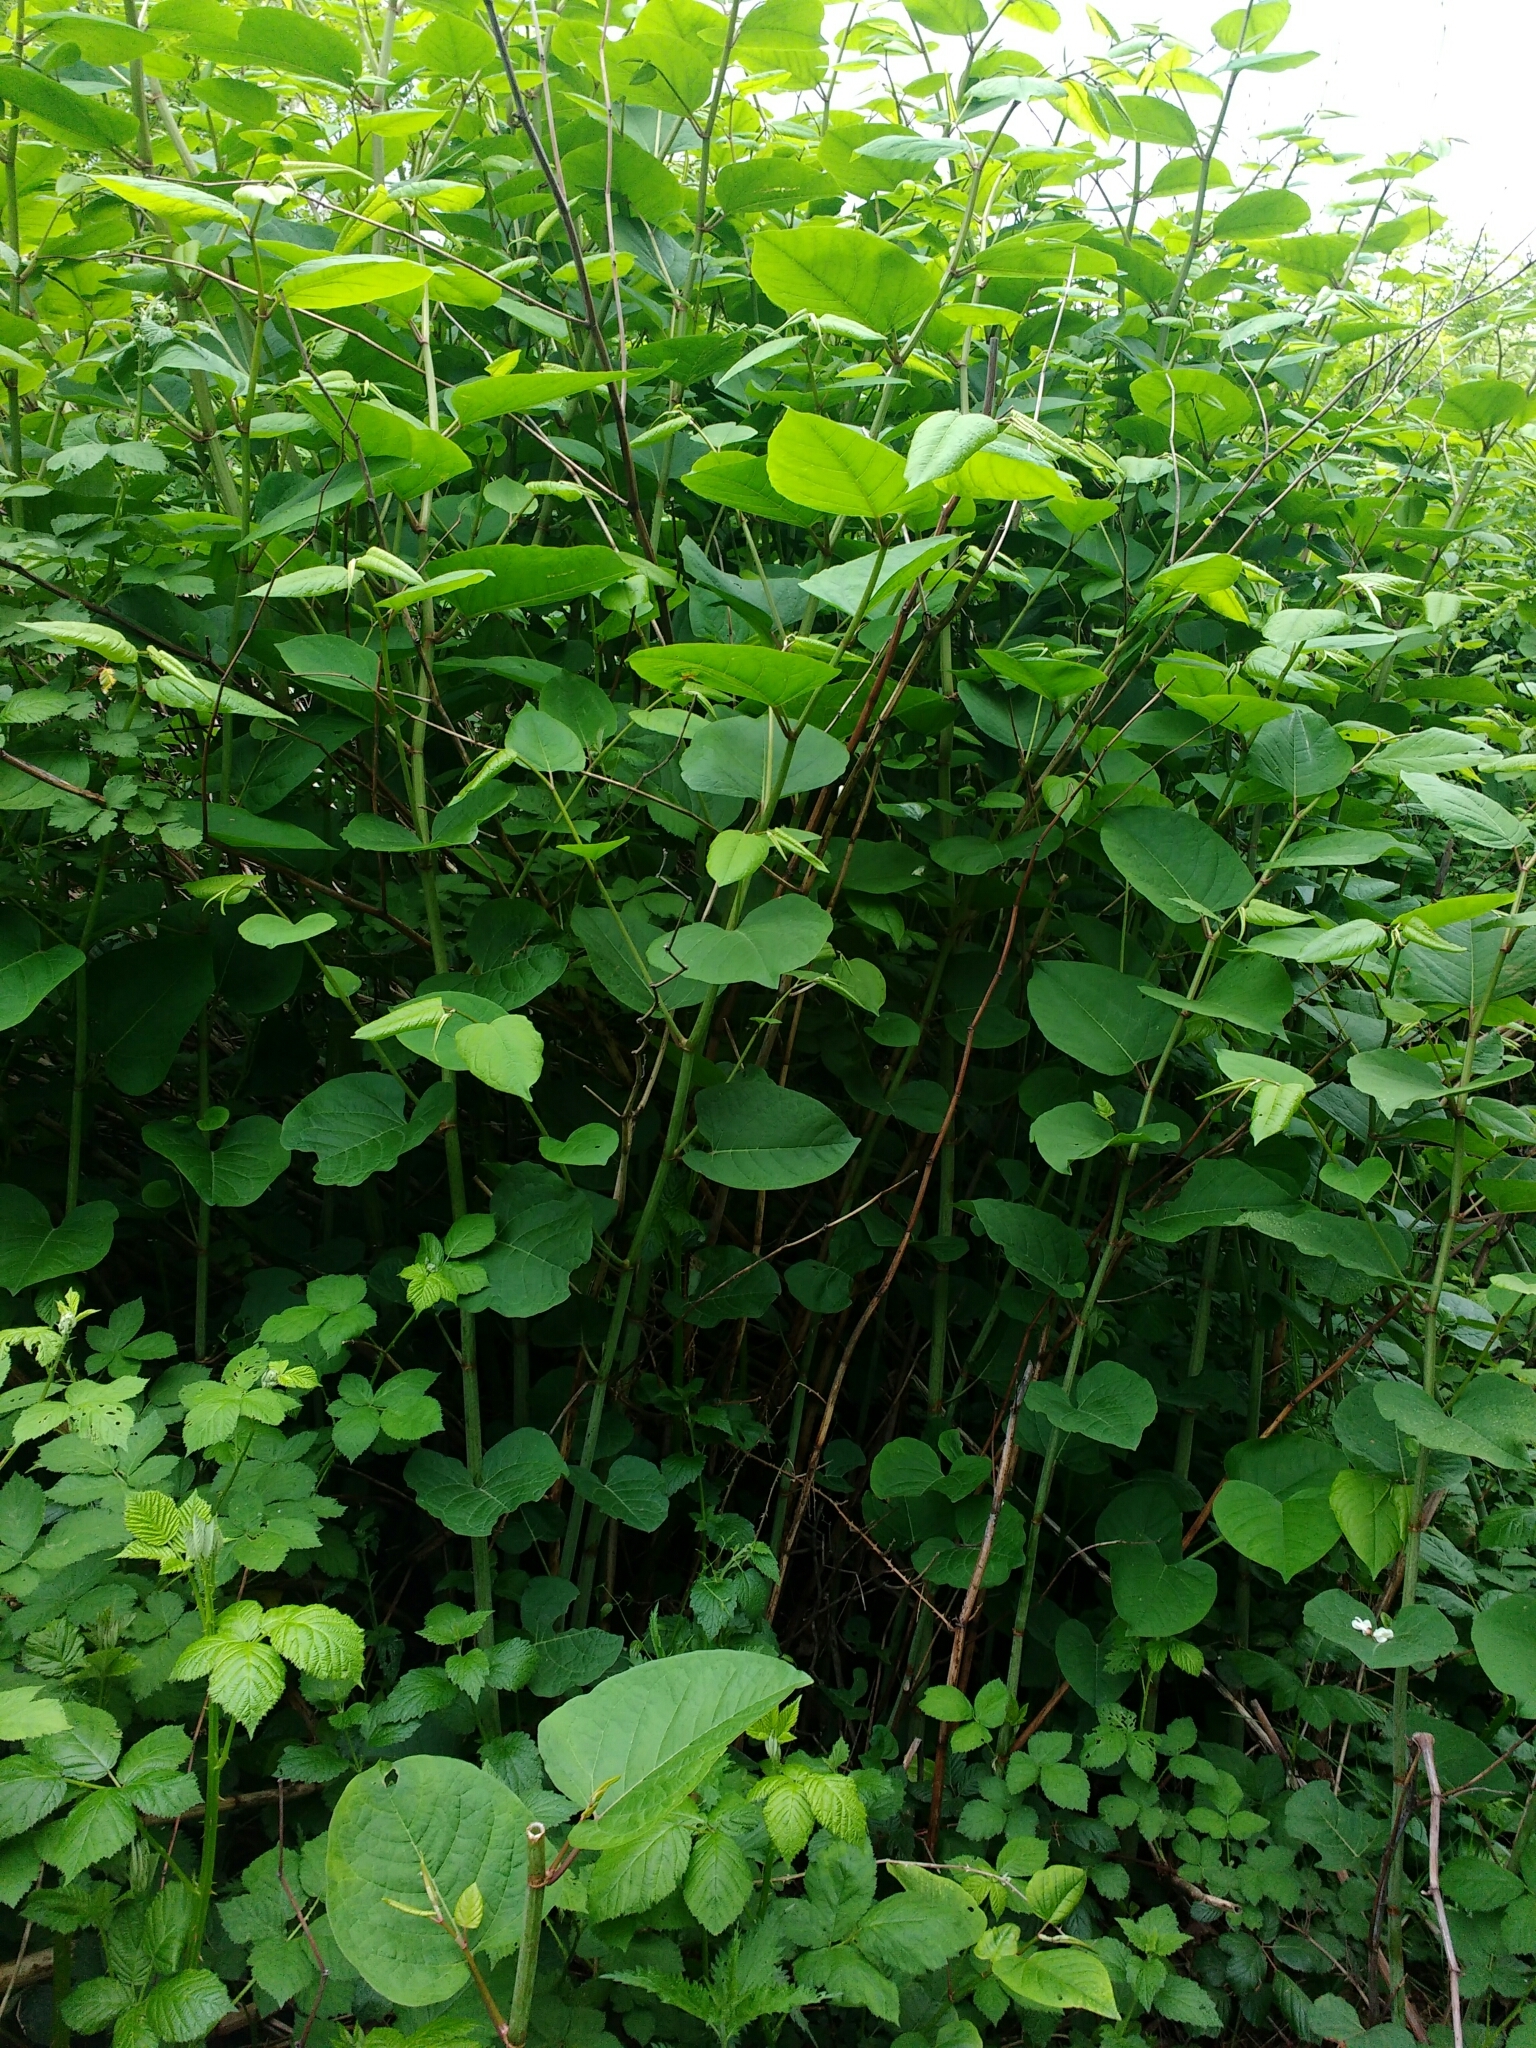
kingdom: Plantae
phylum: Tracheophyta
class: Magnoliopsida
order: Caryophyllales
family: Polygonaceae
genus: Reynoutria
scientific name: Reynoutria bohemica
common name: Bohemian knotweed
